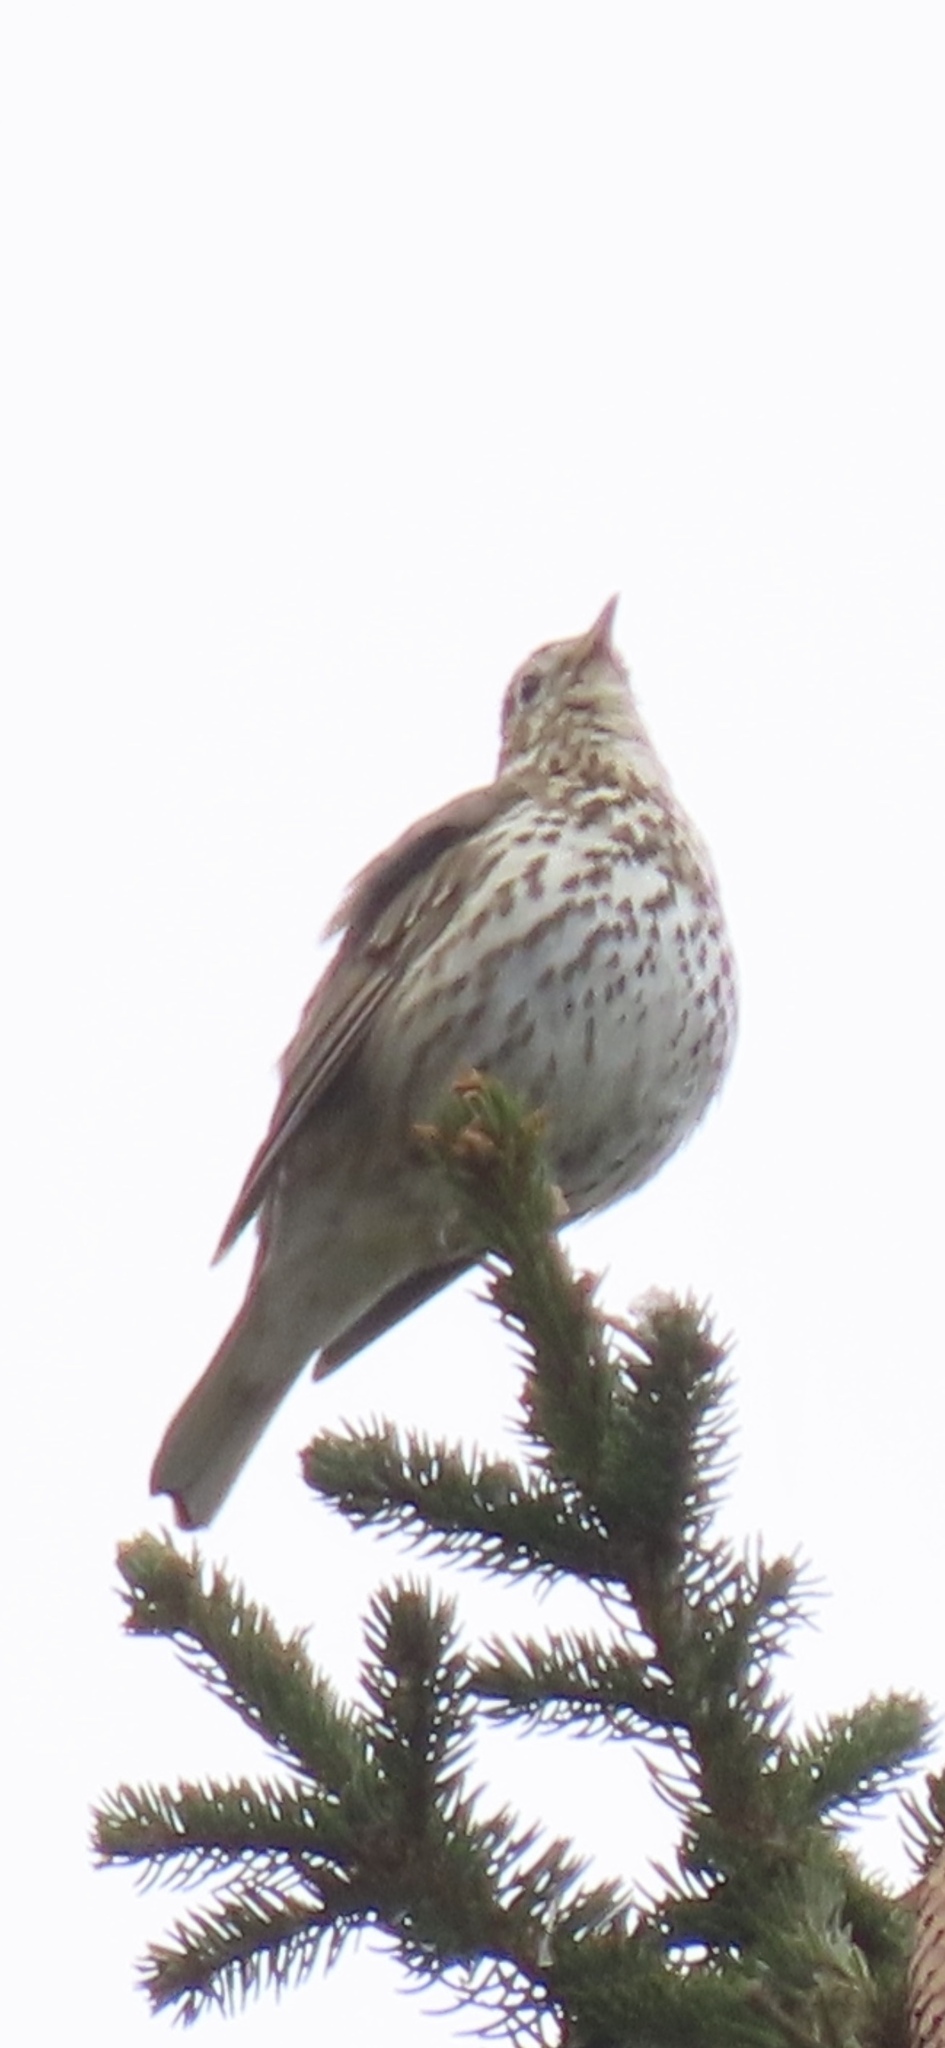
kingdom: Animalia
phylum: Chordata
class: Aves
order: Passeriformes
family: Turdidae
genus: Turdus
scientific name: Turdus philomelos
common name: Song thrush
